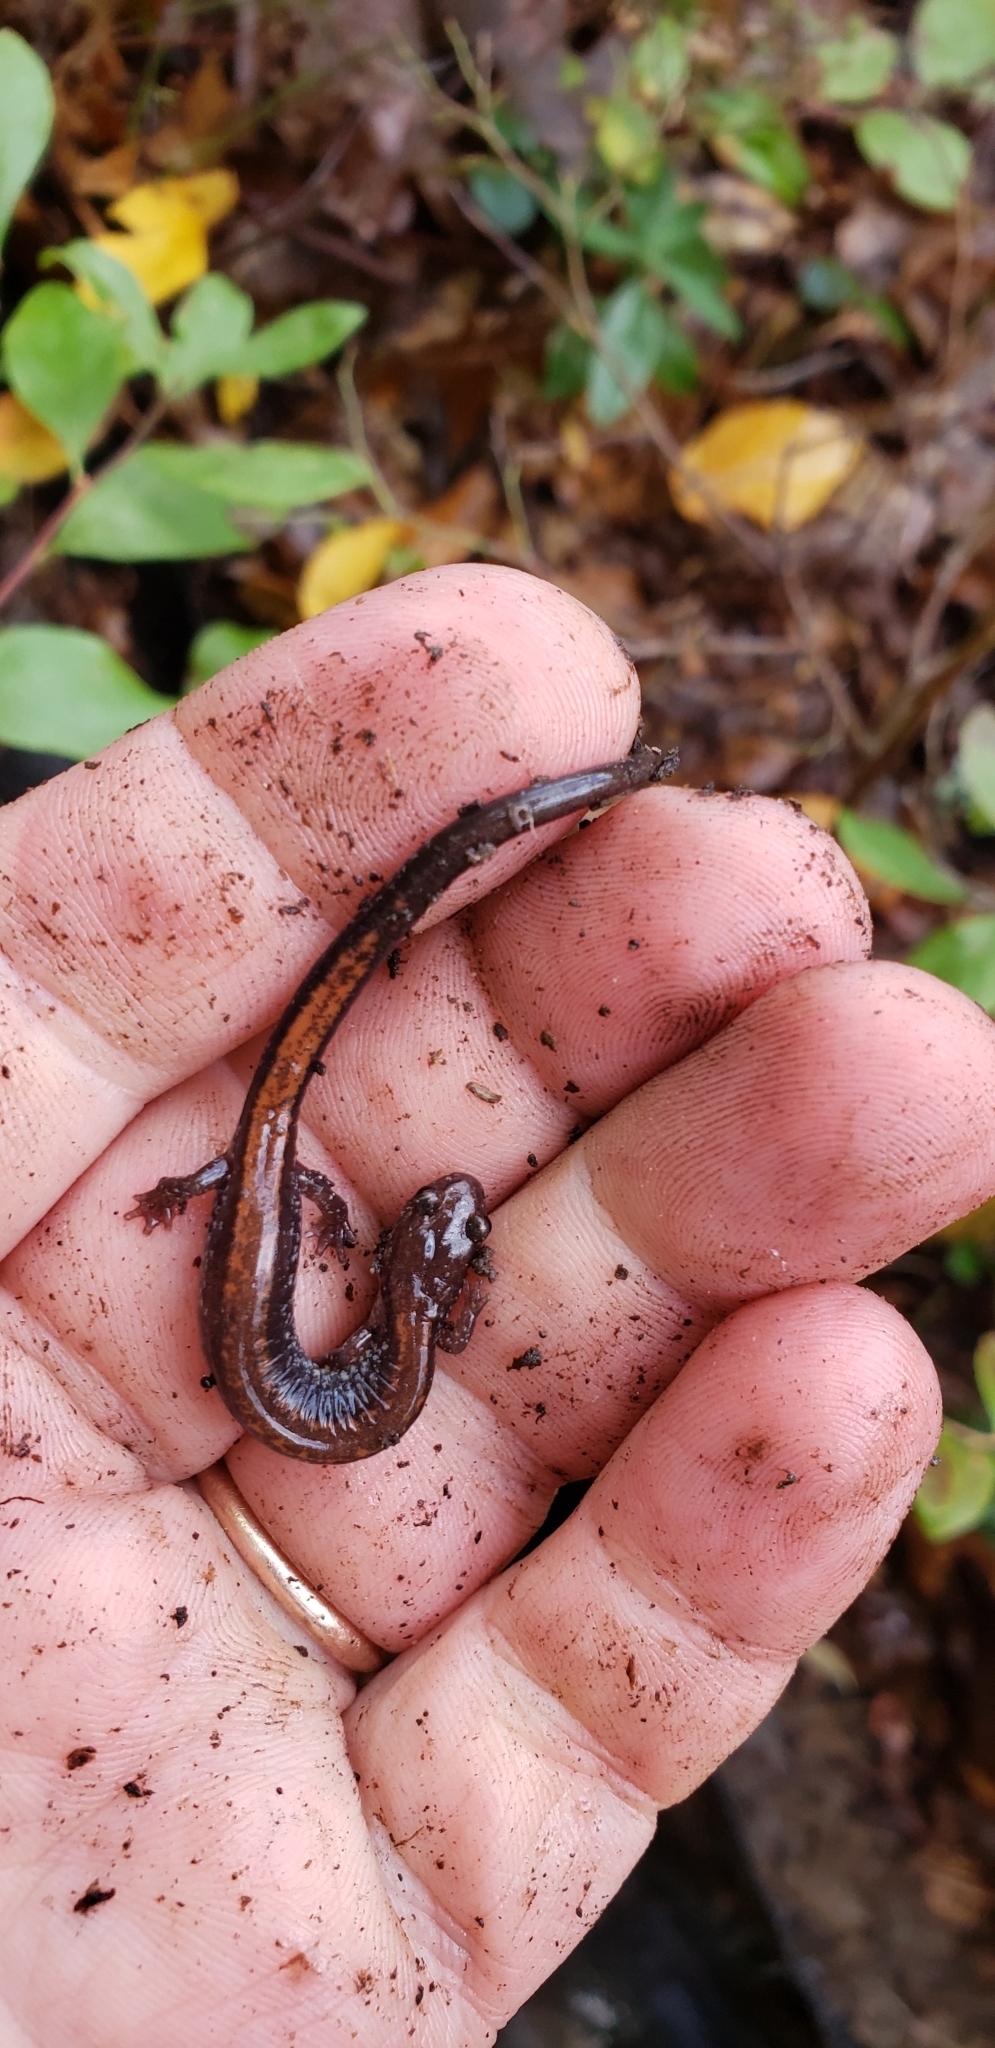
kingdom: Animalia
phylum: Chordata
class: Amphibia
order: Caudata
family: Plethodontidae
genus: Plethodon
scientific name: Plethodon cinereus
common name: Redback salamander
